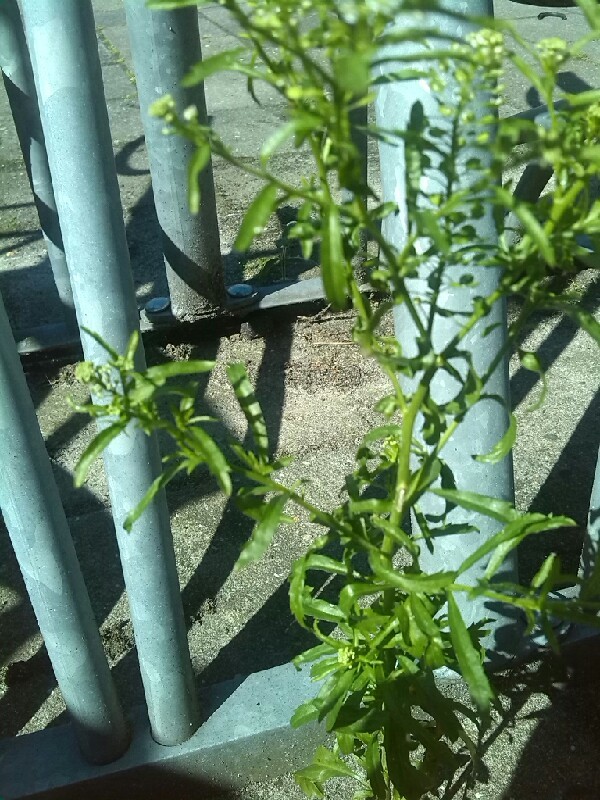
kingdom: Plantae
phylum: Tracheophyta
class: Magnoliopsida
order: Brassicales
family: Brassicaceae
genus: Lepidium
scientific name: Lepidium virginicum
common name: Least pepperwort
